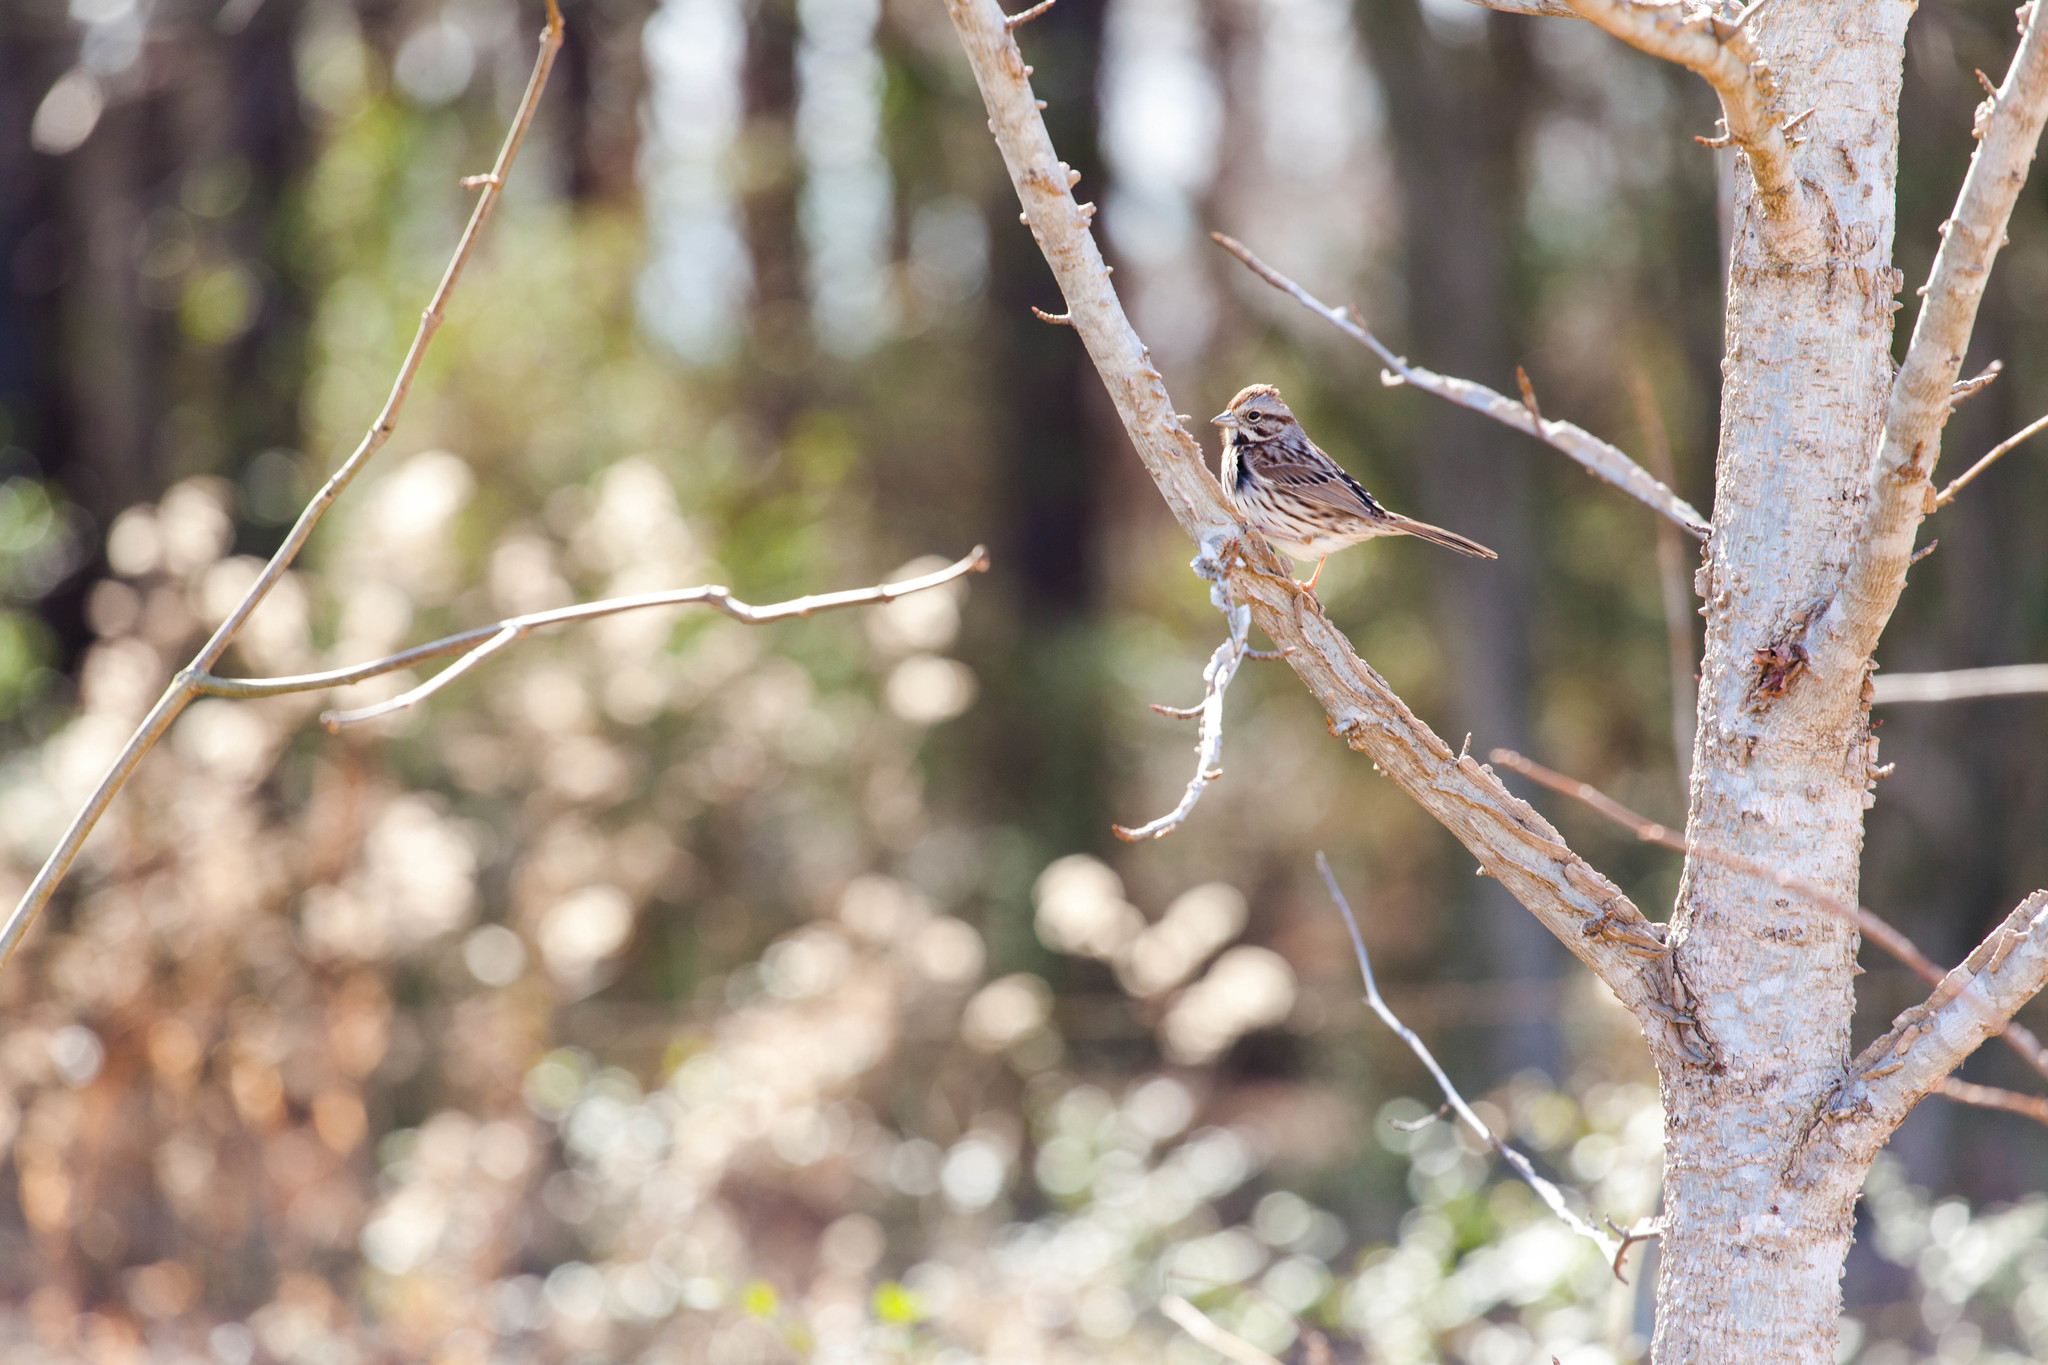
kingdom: Animalia
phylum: Chordata
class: Aves
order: Passeriformes
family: Passerellidae
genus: Melospiza
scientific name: Melospiza melodia
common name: Song sparrow
